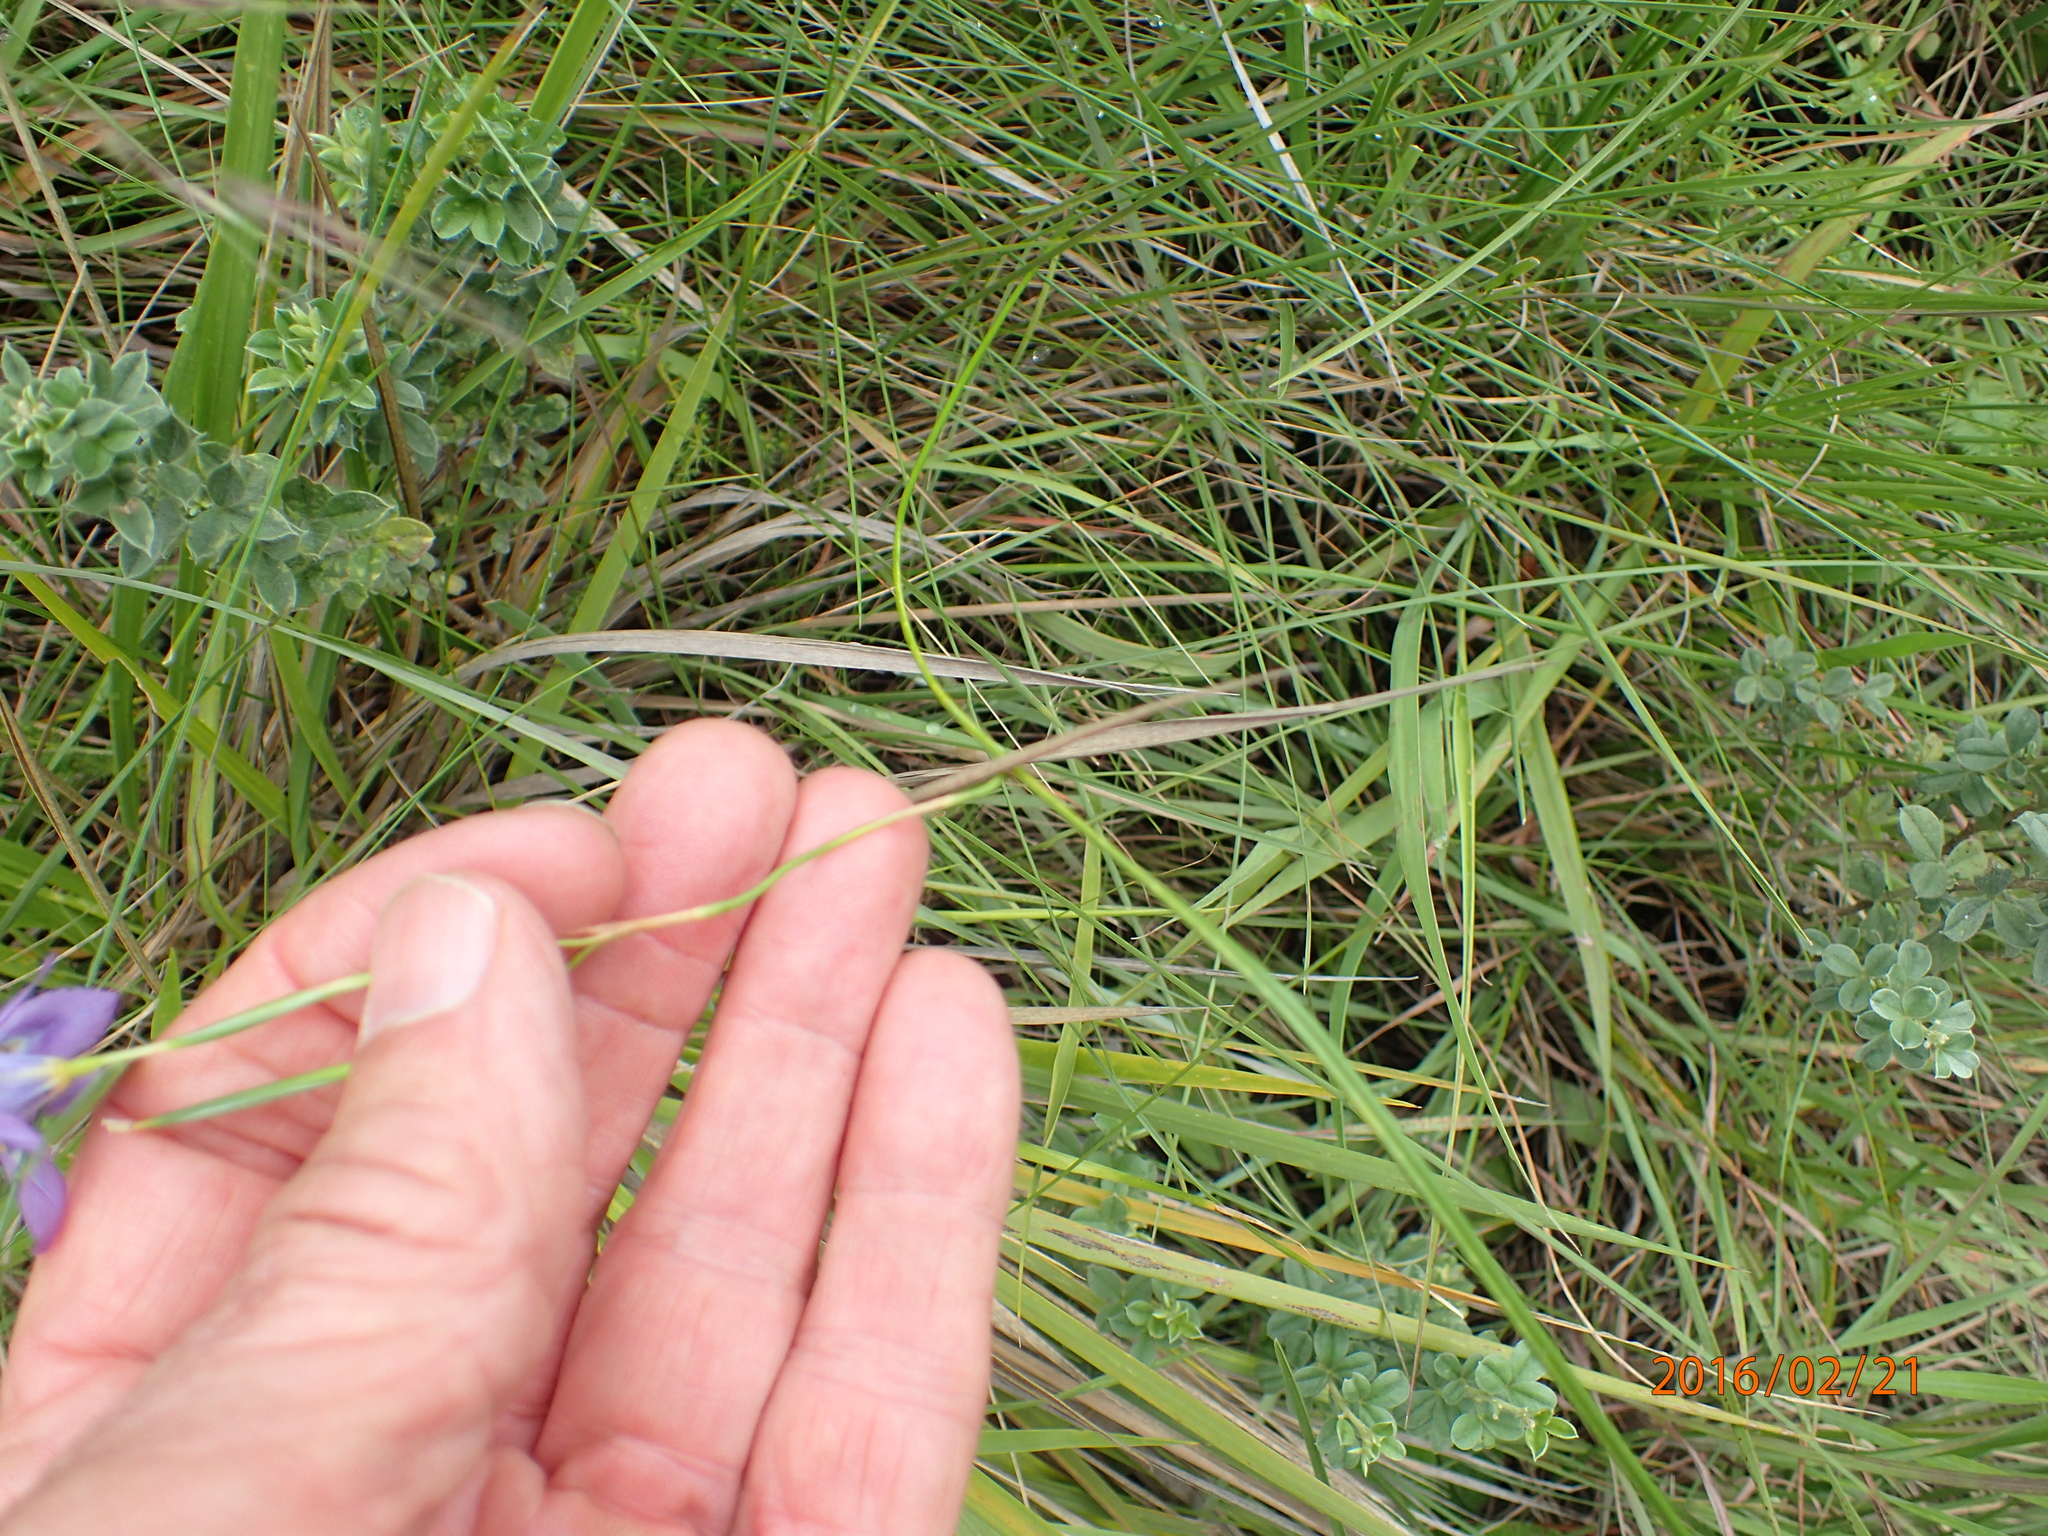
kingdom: Plantae
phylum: Tracheophyta
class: Liliopsida
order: Asparagales
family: Iridaceae
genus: Moraea
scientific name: Moraea inclinata
